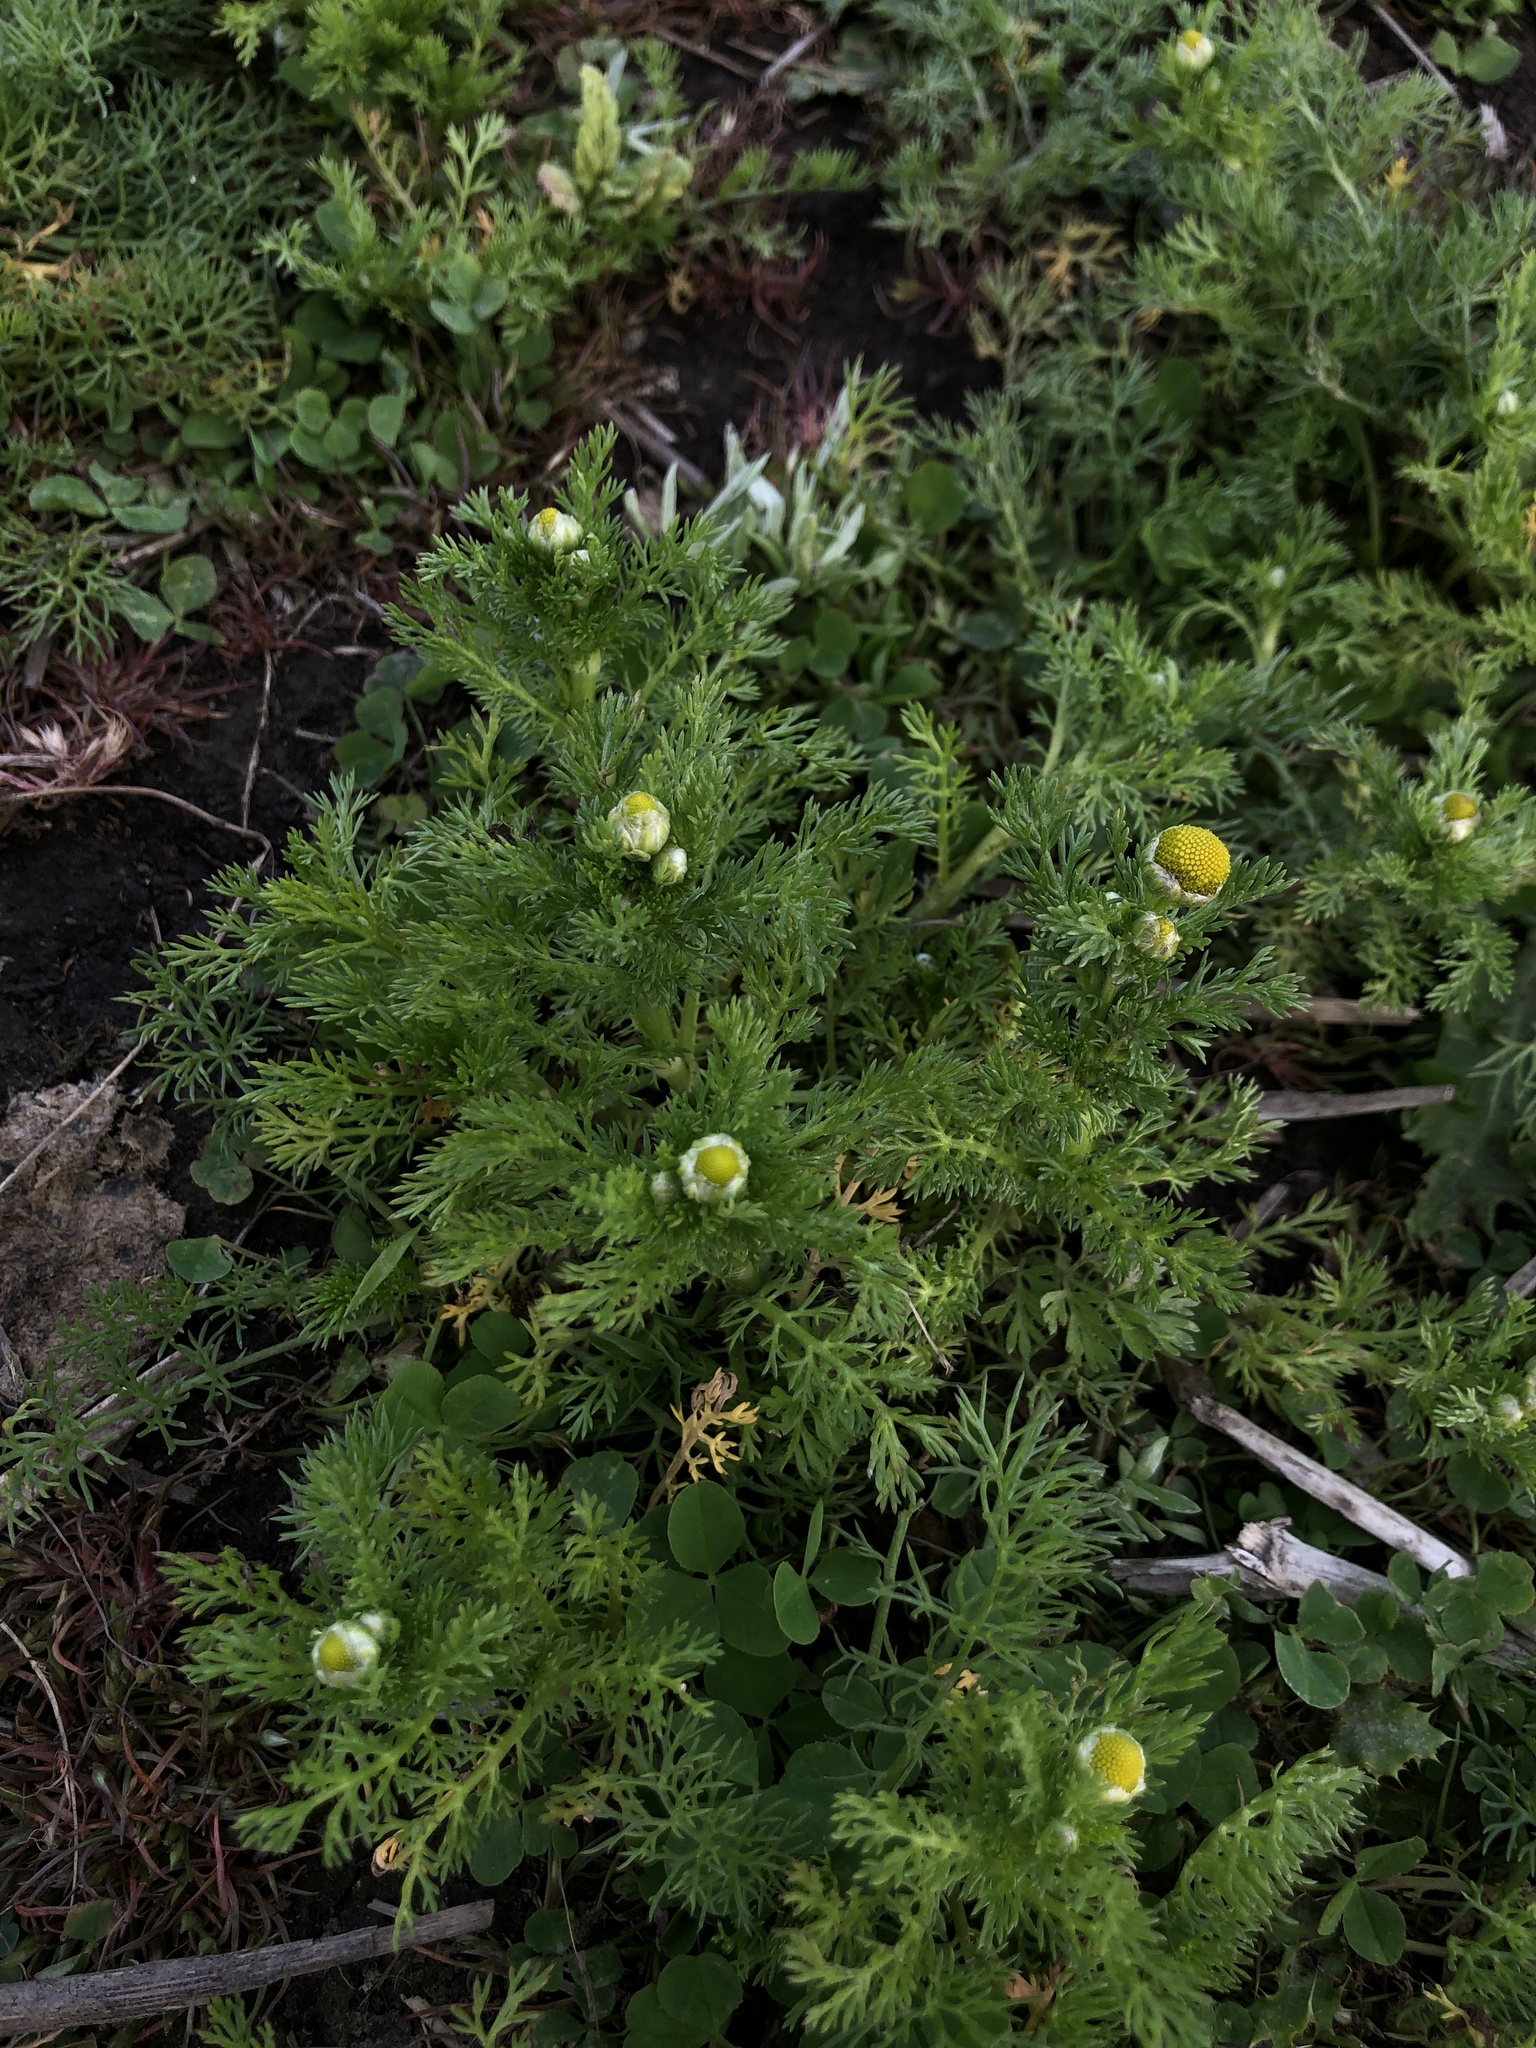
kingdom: Plantae
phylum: Tracheophyta
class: Magnoliopsida
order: Asterales
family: Asteraceae
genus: Matricaria
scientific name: Matricaria discoidea
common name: Disc mayweed
